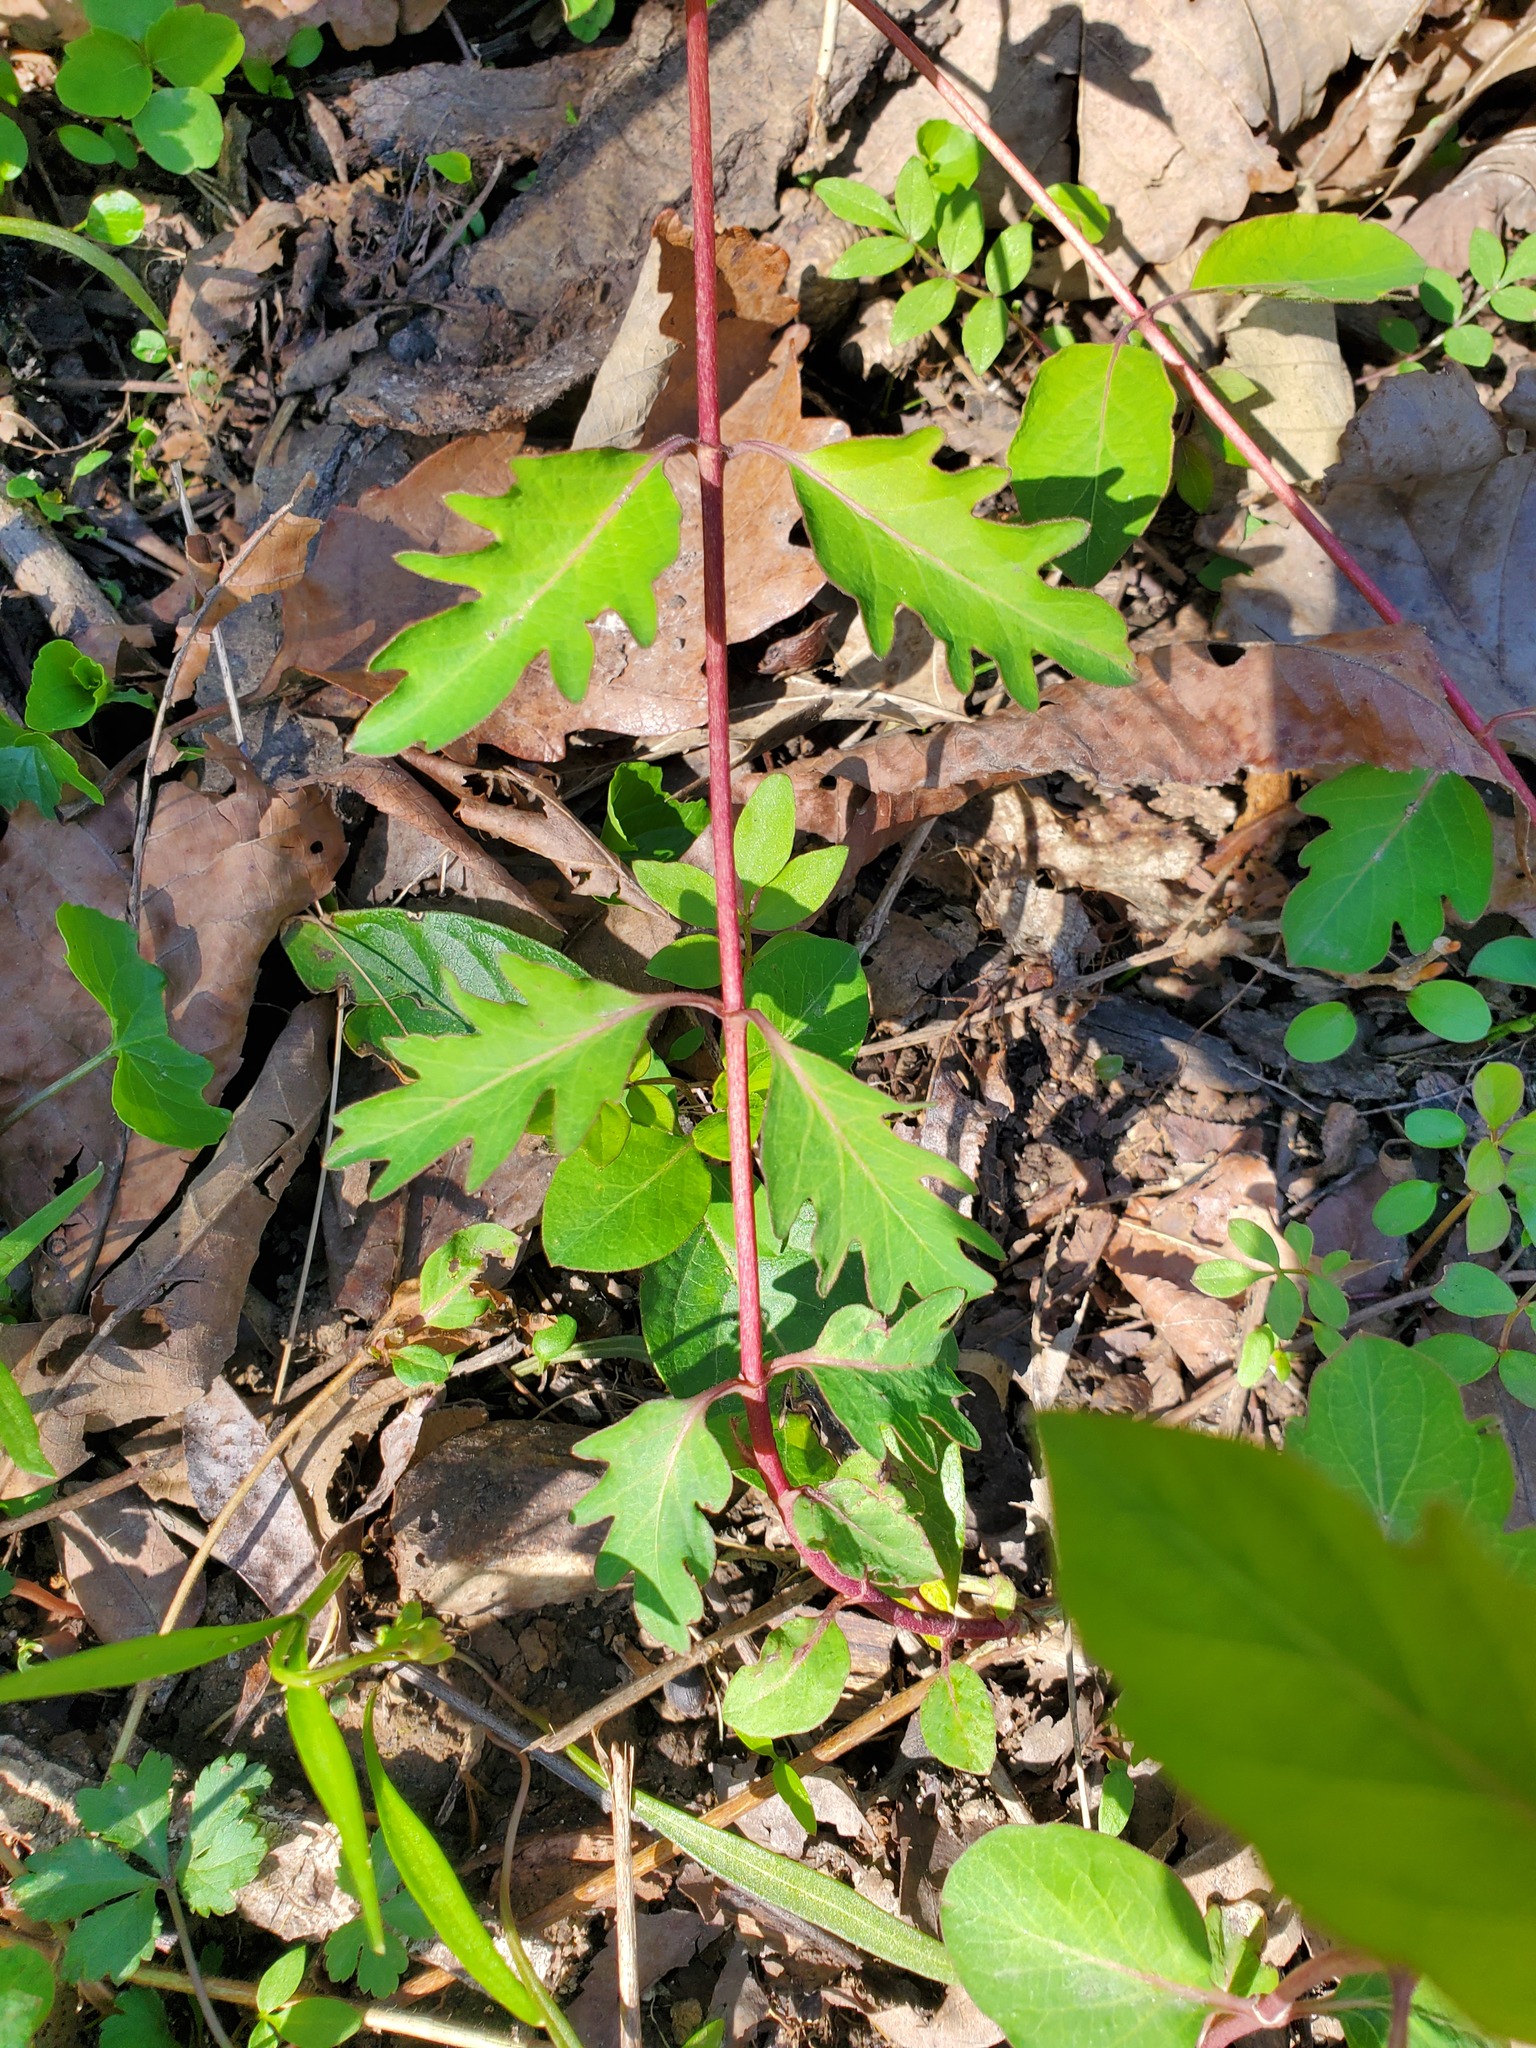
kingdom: Plantae
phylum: Tracheophyta
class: Magnoliopsida
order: Dipsacales
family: Caprifoliaceae
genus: Lonicera
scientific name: Lonicera japonica
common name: Japanese honeysuckle
